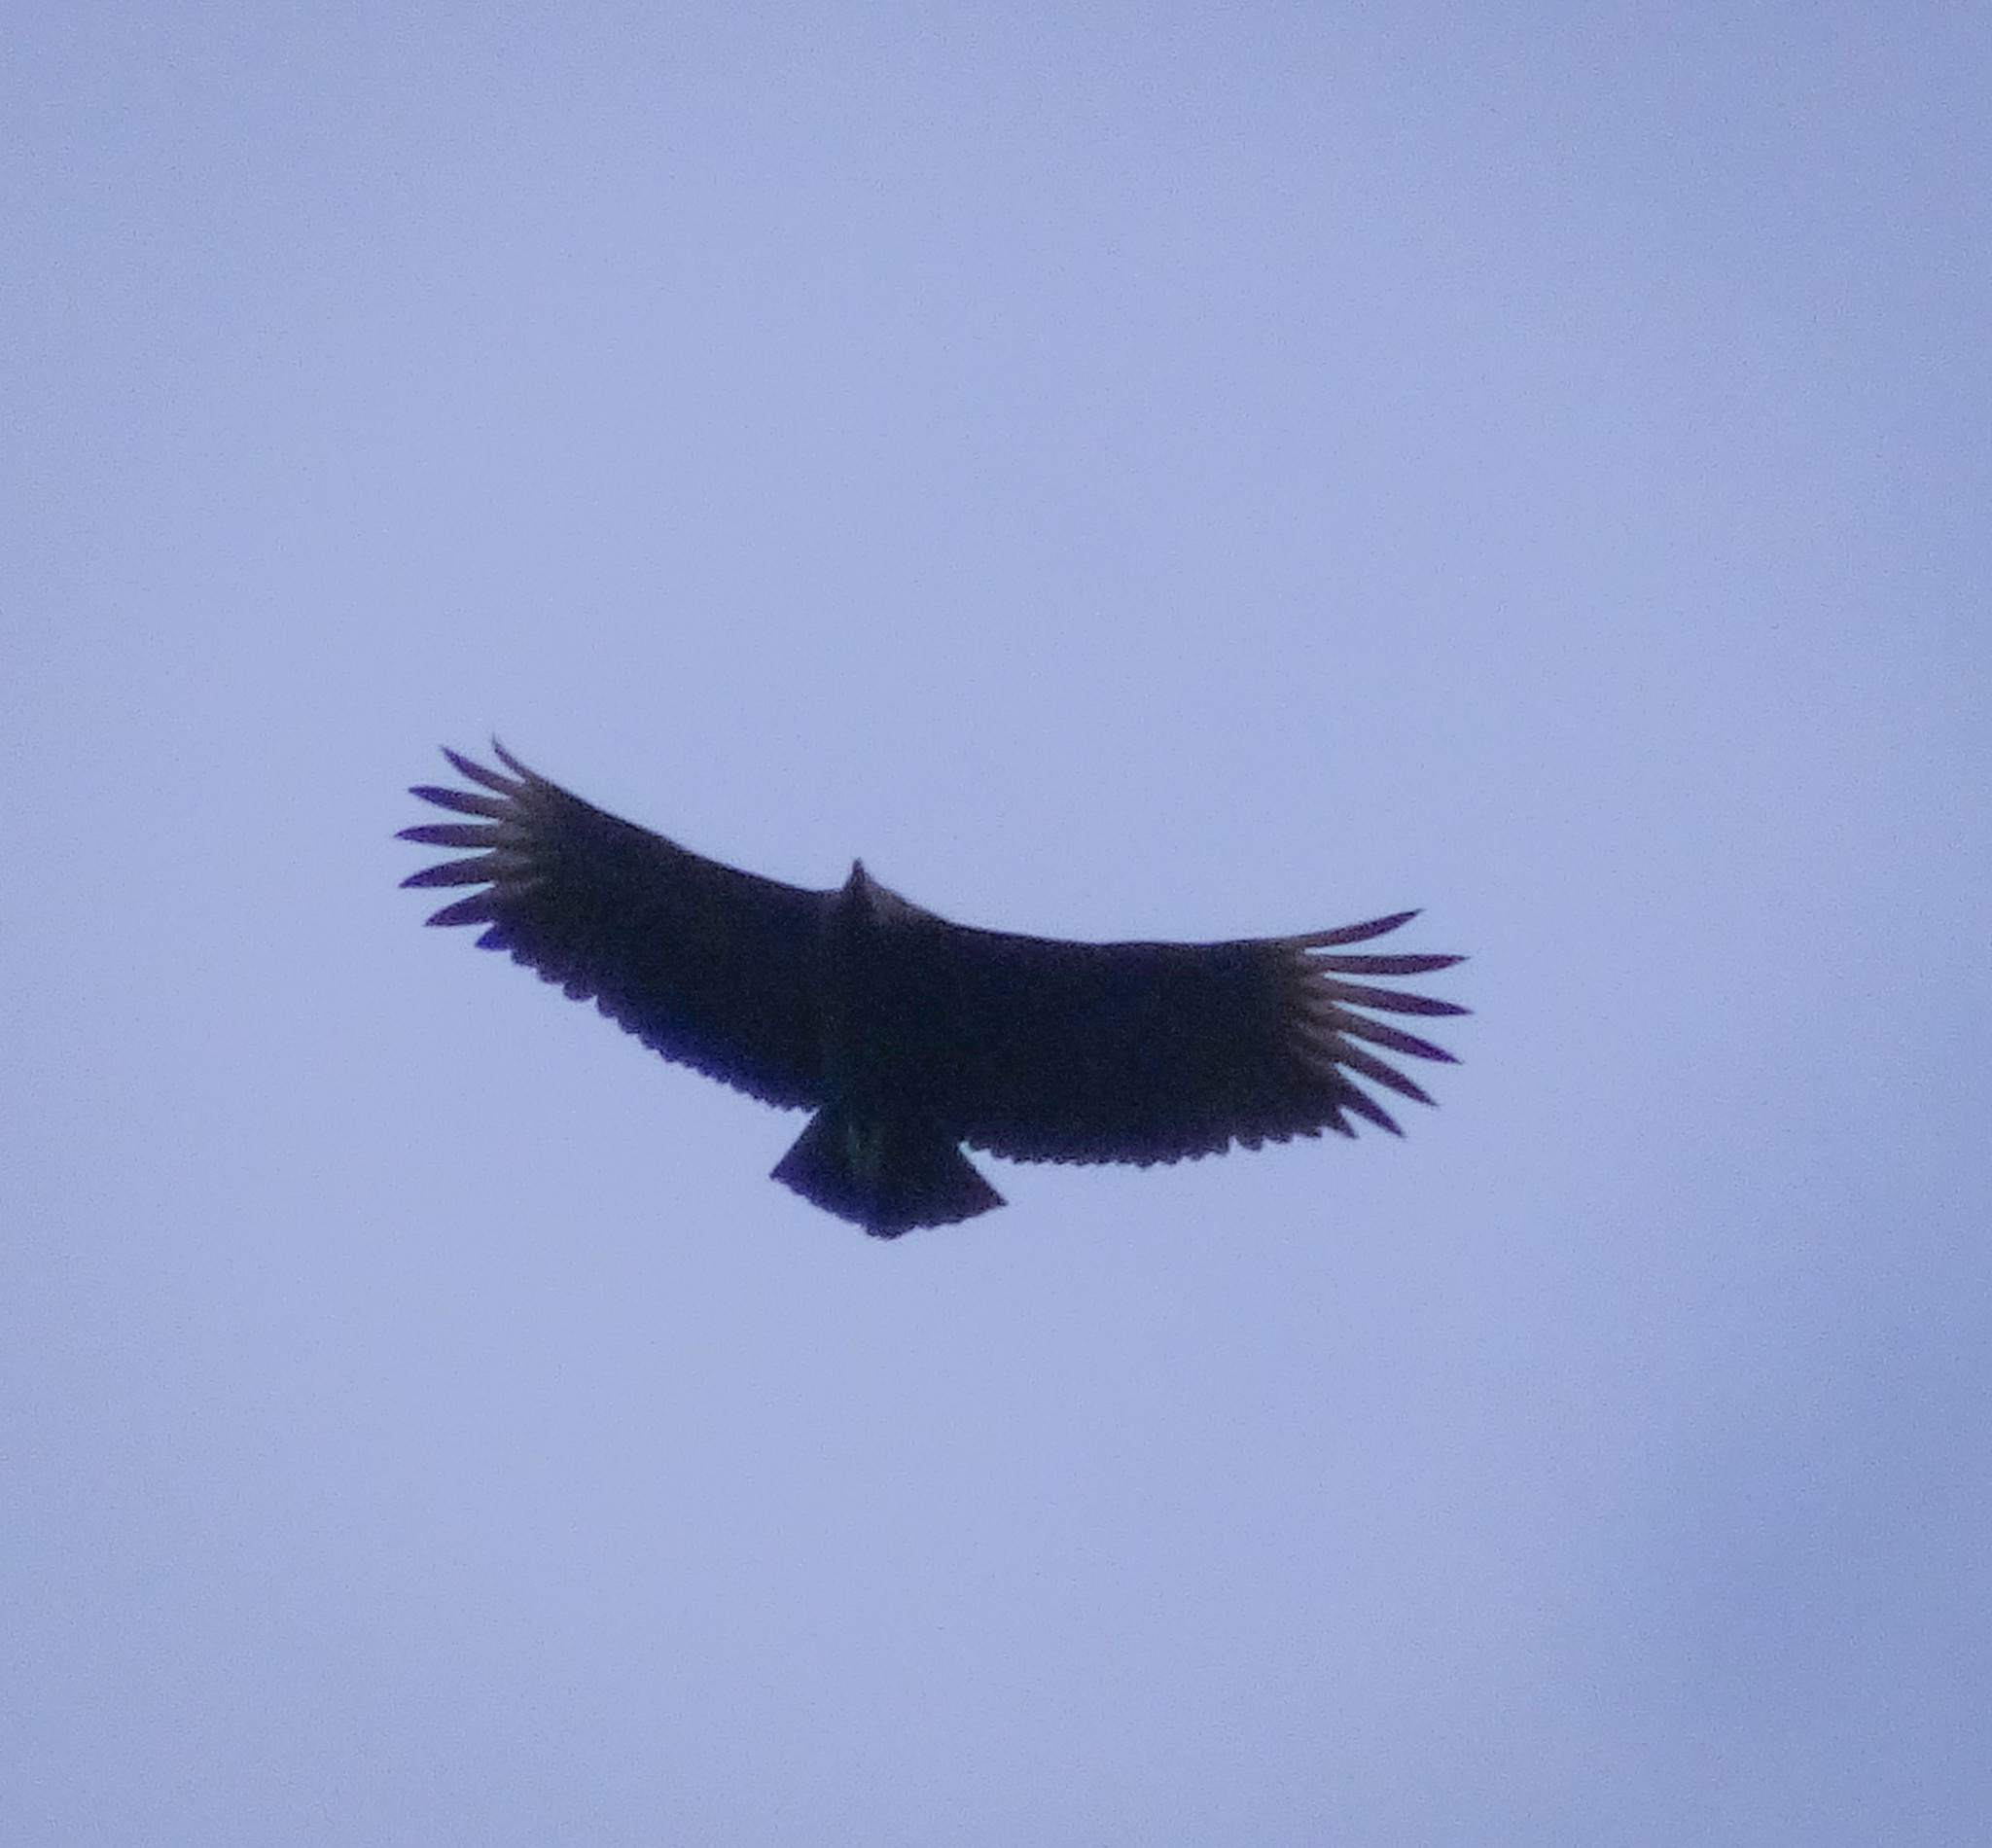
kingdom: Animalia
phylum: Chordata
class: Aves
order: Accipitriformes
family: Cathartidae
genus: Coragyps
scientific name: Coragyps atratus
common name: Black vulture
